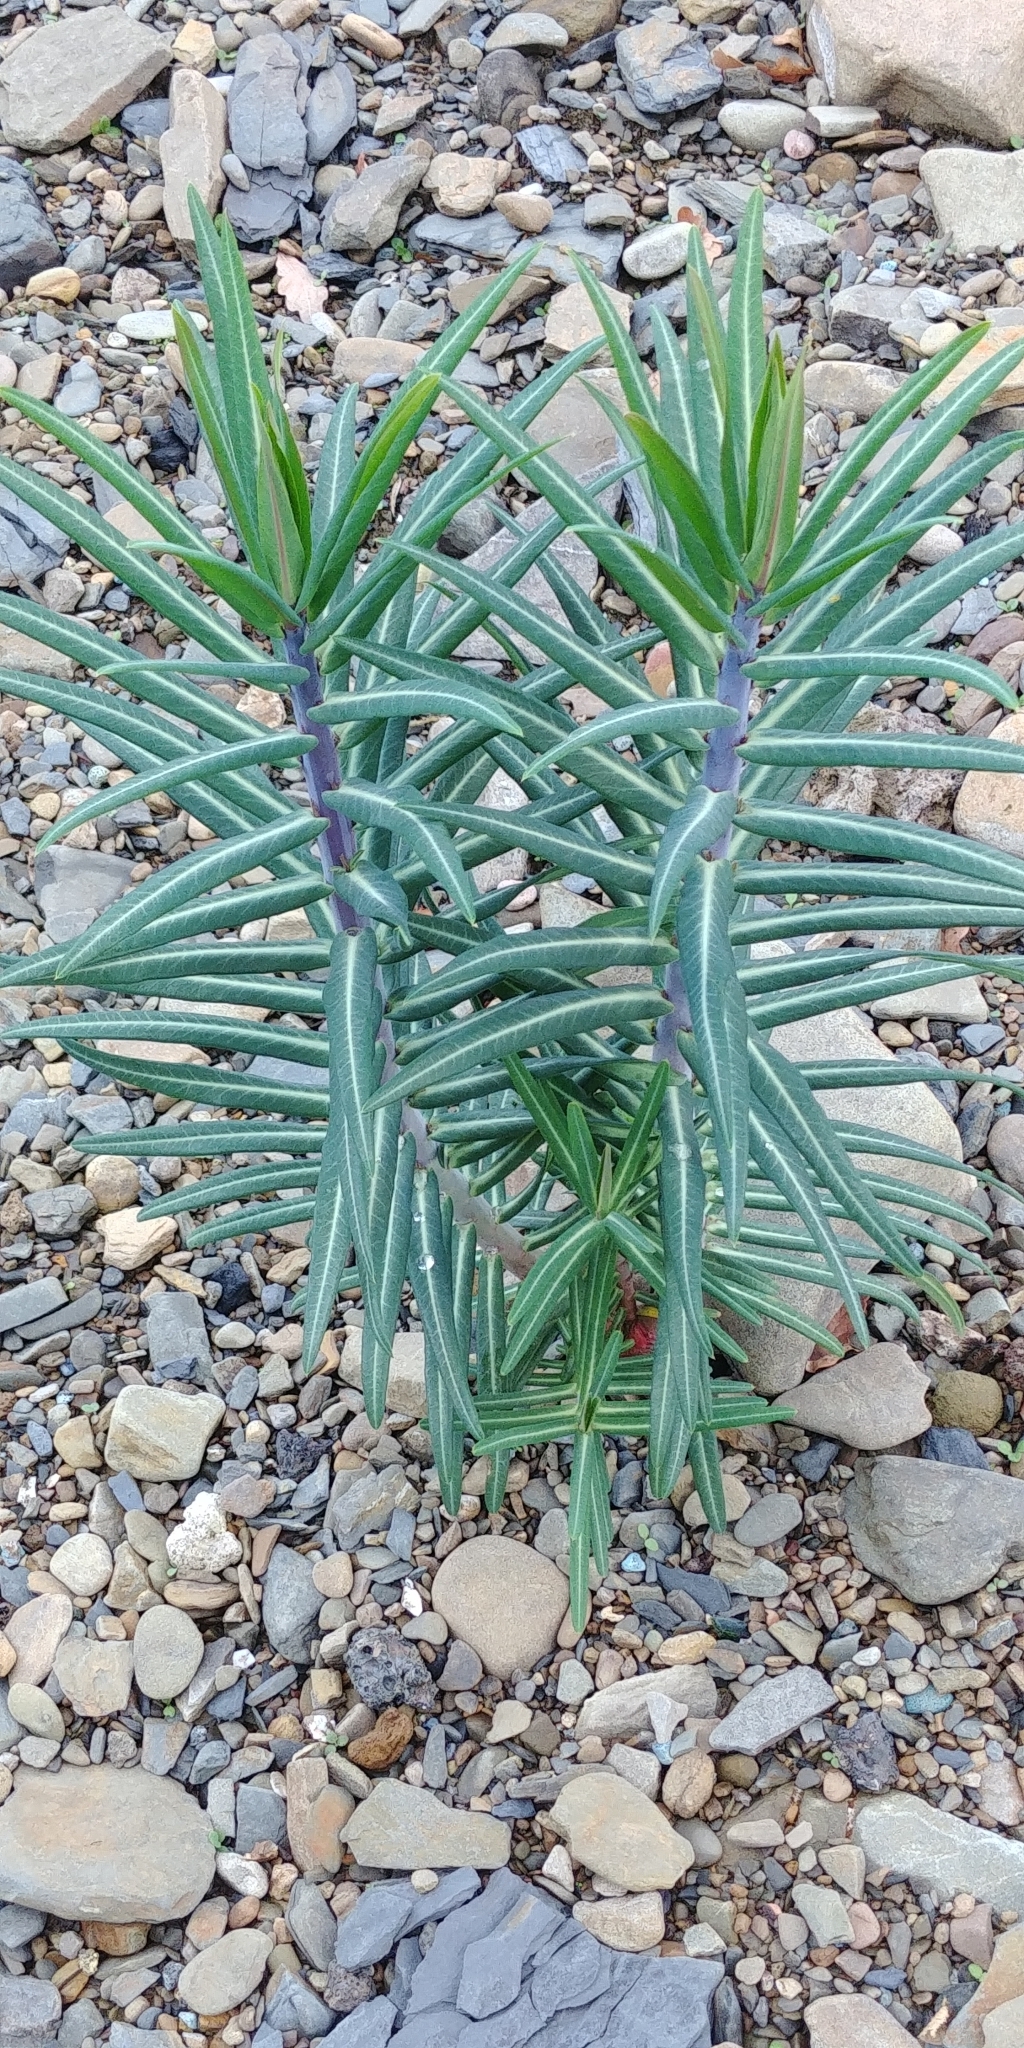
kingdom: Plantae
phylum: Tracheophyta
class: Magnoliopsida
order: Malpighiales
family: Euphorbiaceae
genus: Euphorbia
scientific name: Euphorbia lathyris
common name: Caper spurge
